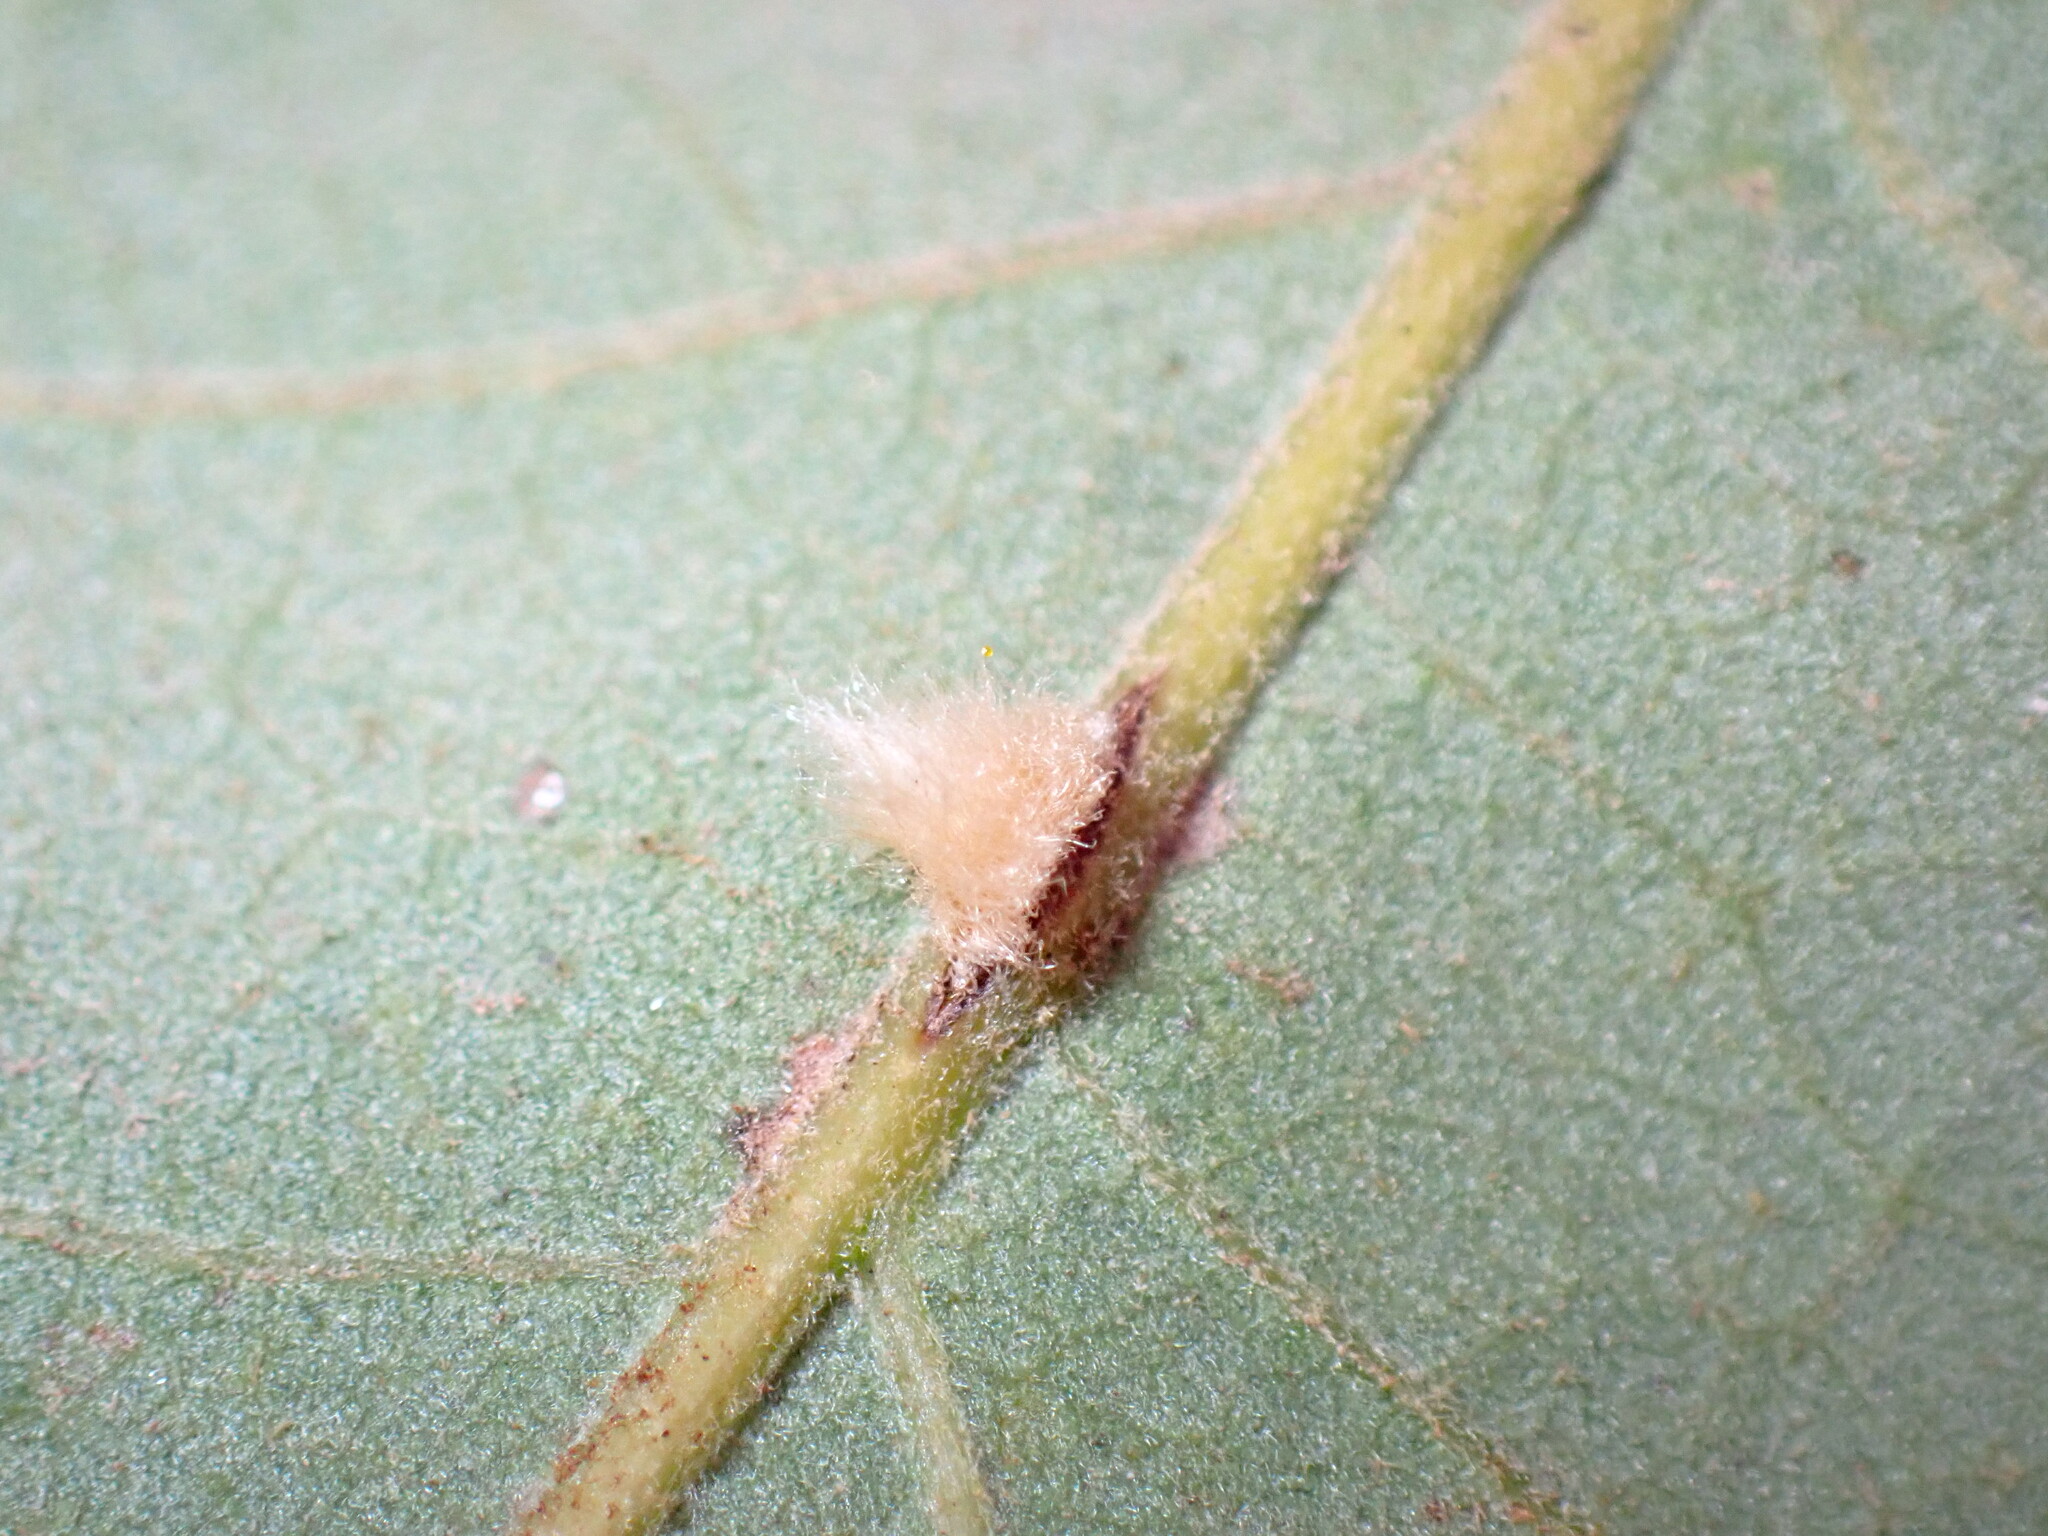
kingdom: Animalia
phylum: Arthropoda
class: Insecta
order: Hymenoptera
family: Cynipidae
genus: Andricus
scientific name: Andricus Druon fullawayi
